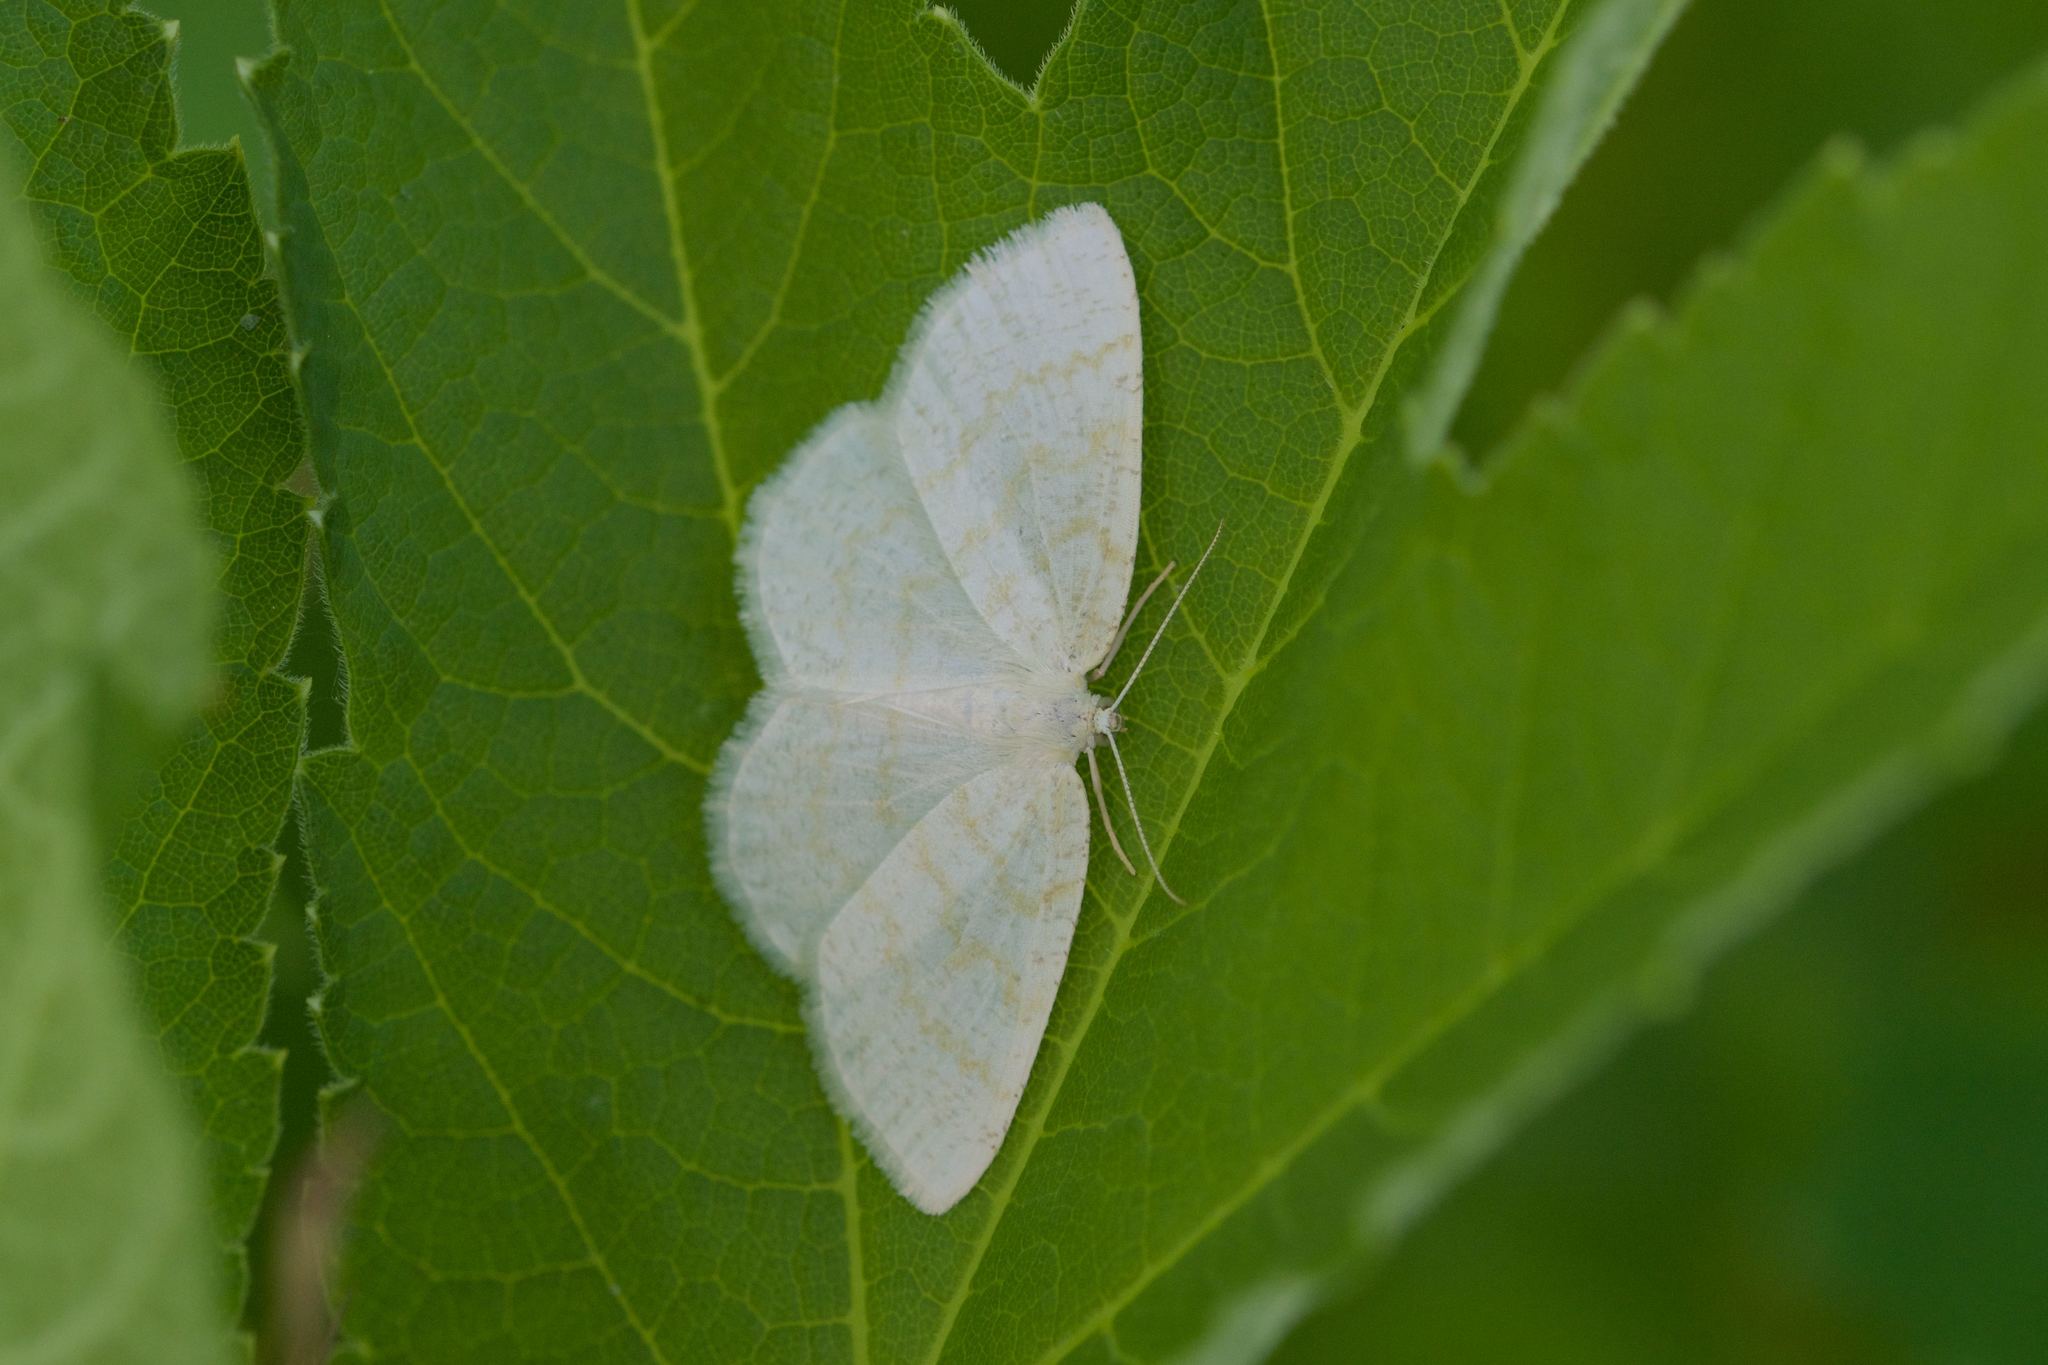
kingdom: Animalia
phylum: Arthropoda
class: Insecta
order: Lepidoptera
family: Geometridae
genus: Cabera
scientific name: Cabera erythemaria
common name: Yellow-dusted cream moth
